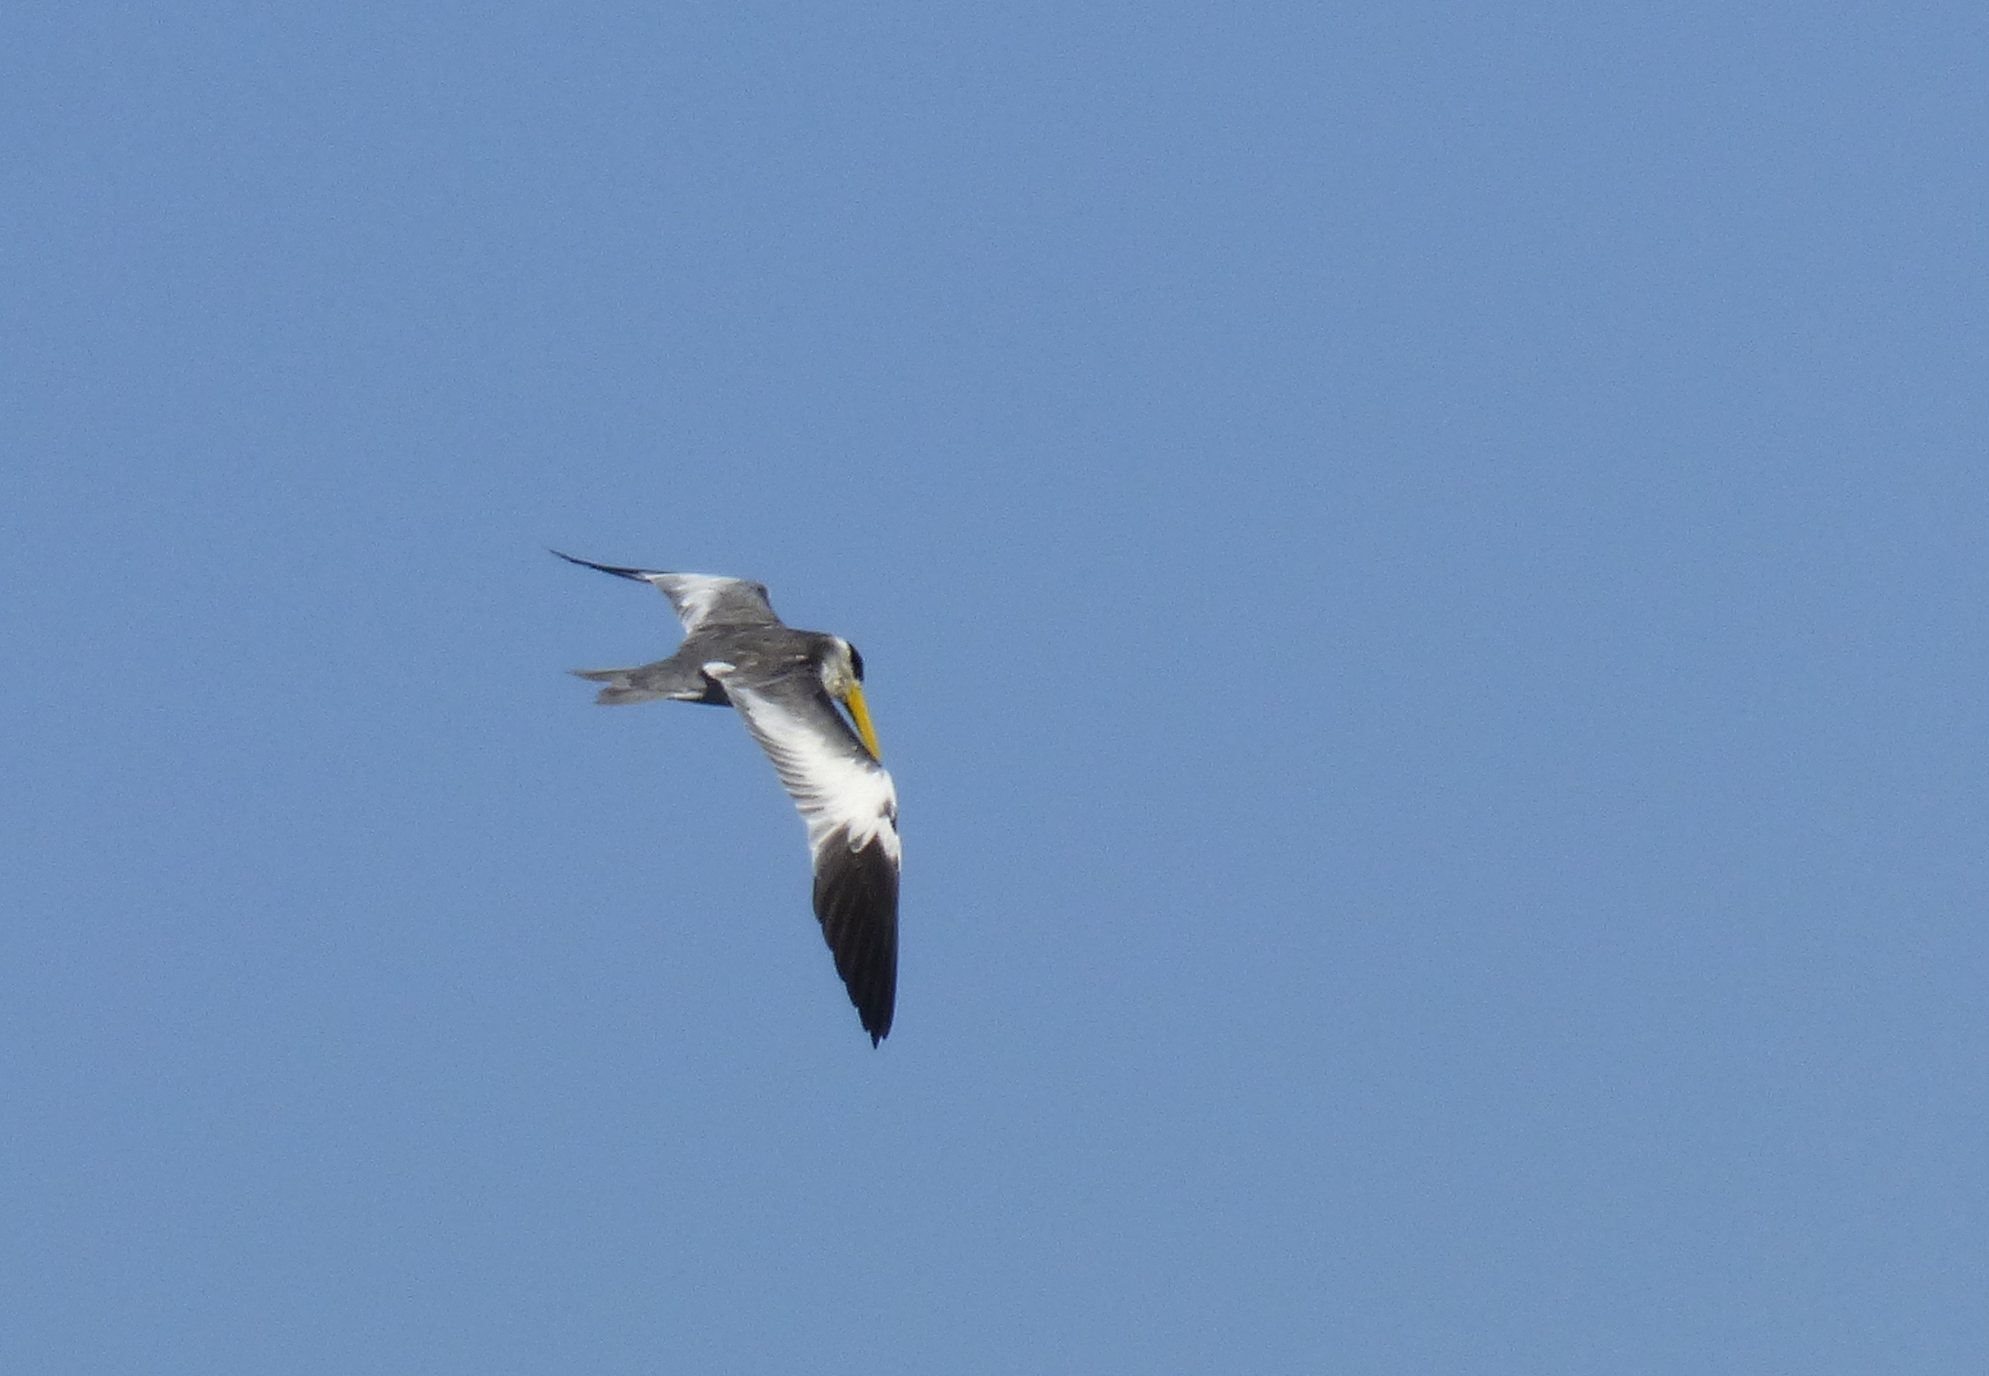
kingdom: Animalia
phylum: Chordata
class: Aves
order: Charadriiformes
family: Laridae
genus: Phaetusa
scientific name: Phaetusa simplex
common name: Large-billed tern
